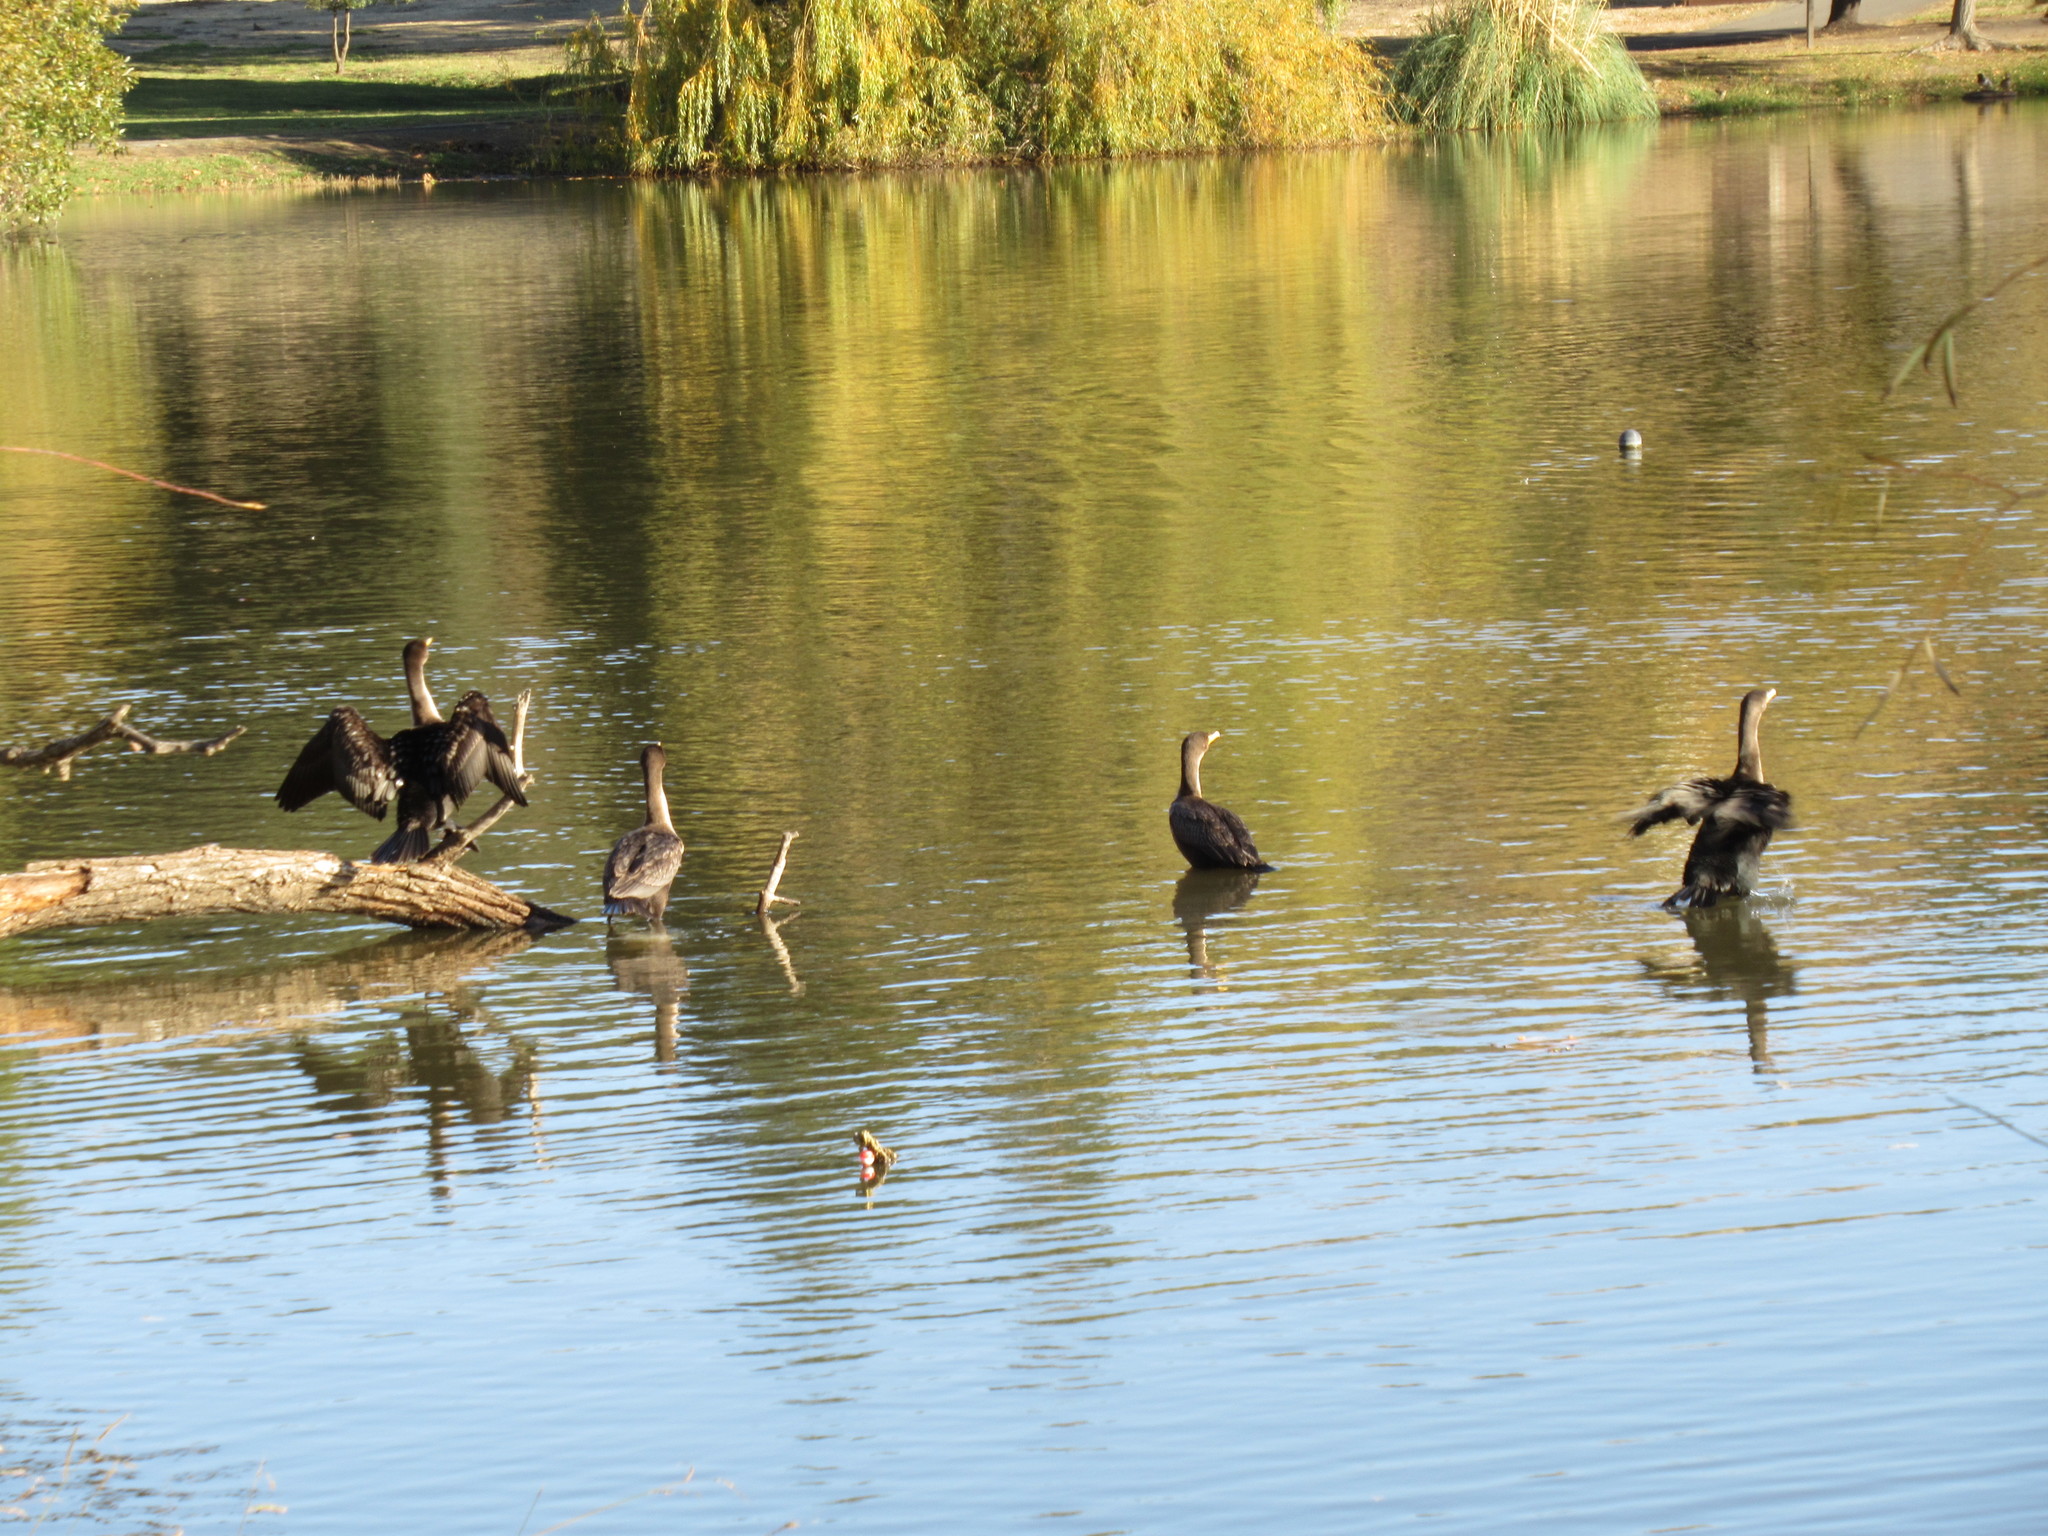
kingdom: Animalia
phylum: Chordata
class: Aves
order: Suliformes
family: Phalacrocoracidae
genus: Phalacrocorax
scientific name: Phalacrocorax auritus
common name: Double-crested cormorant
